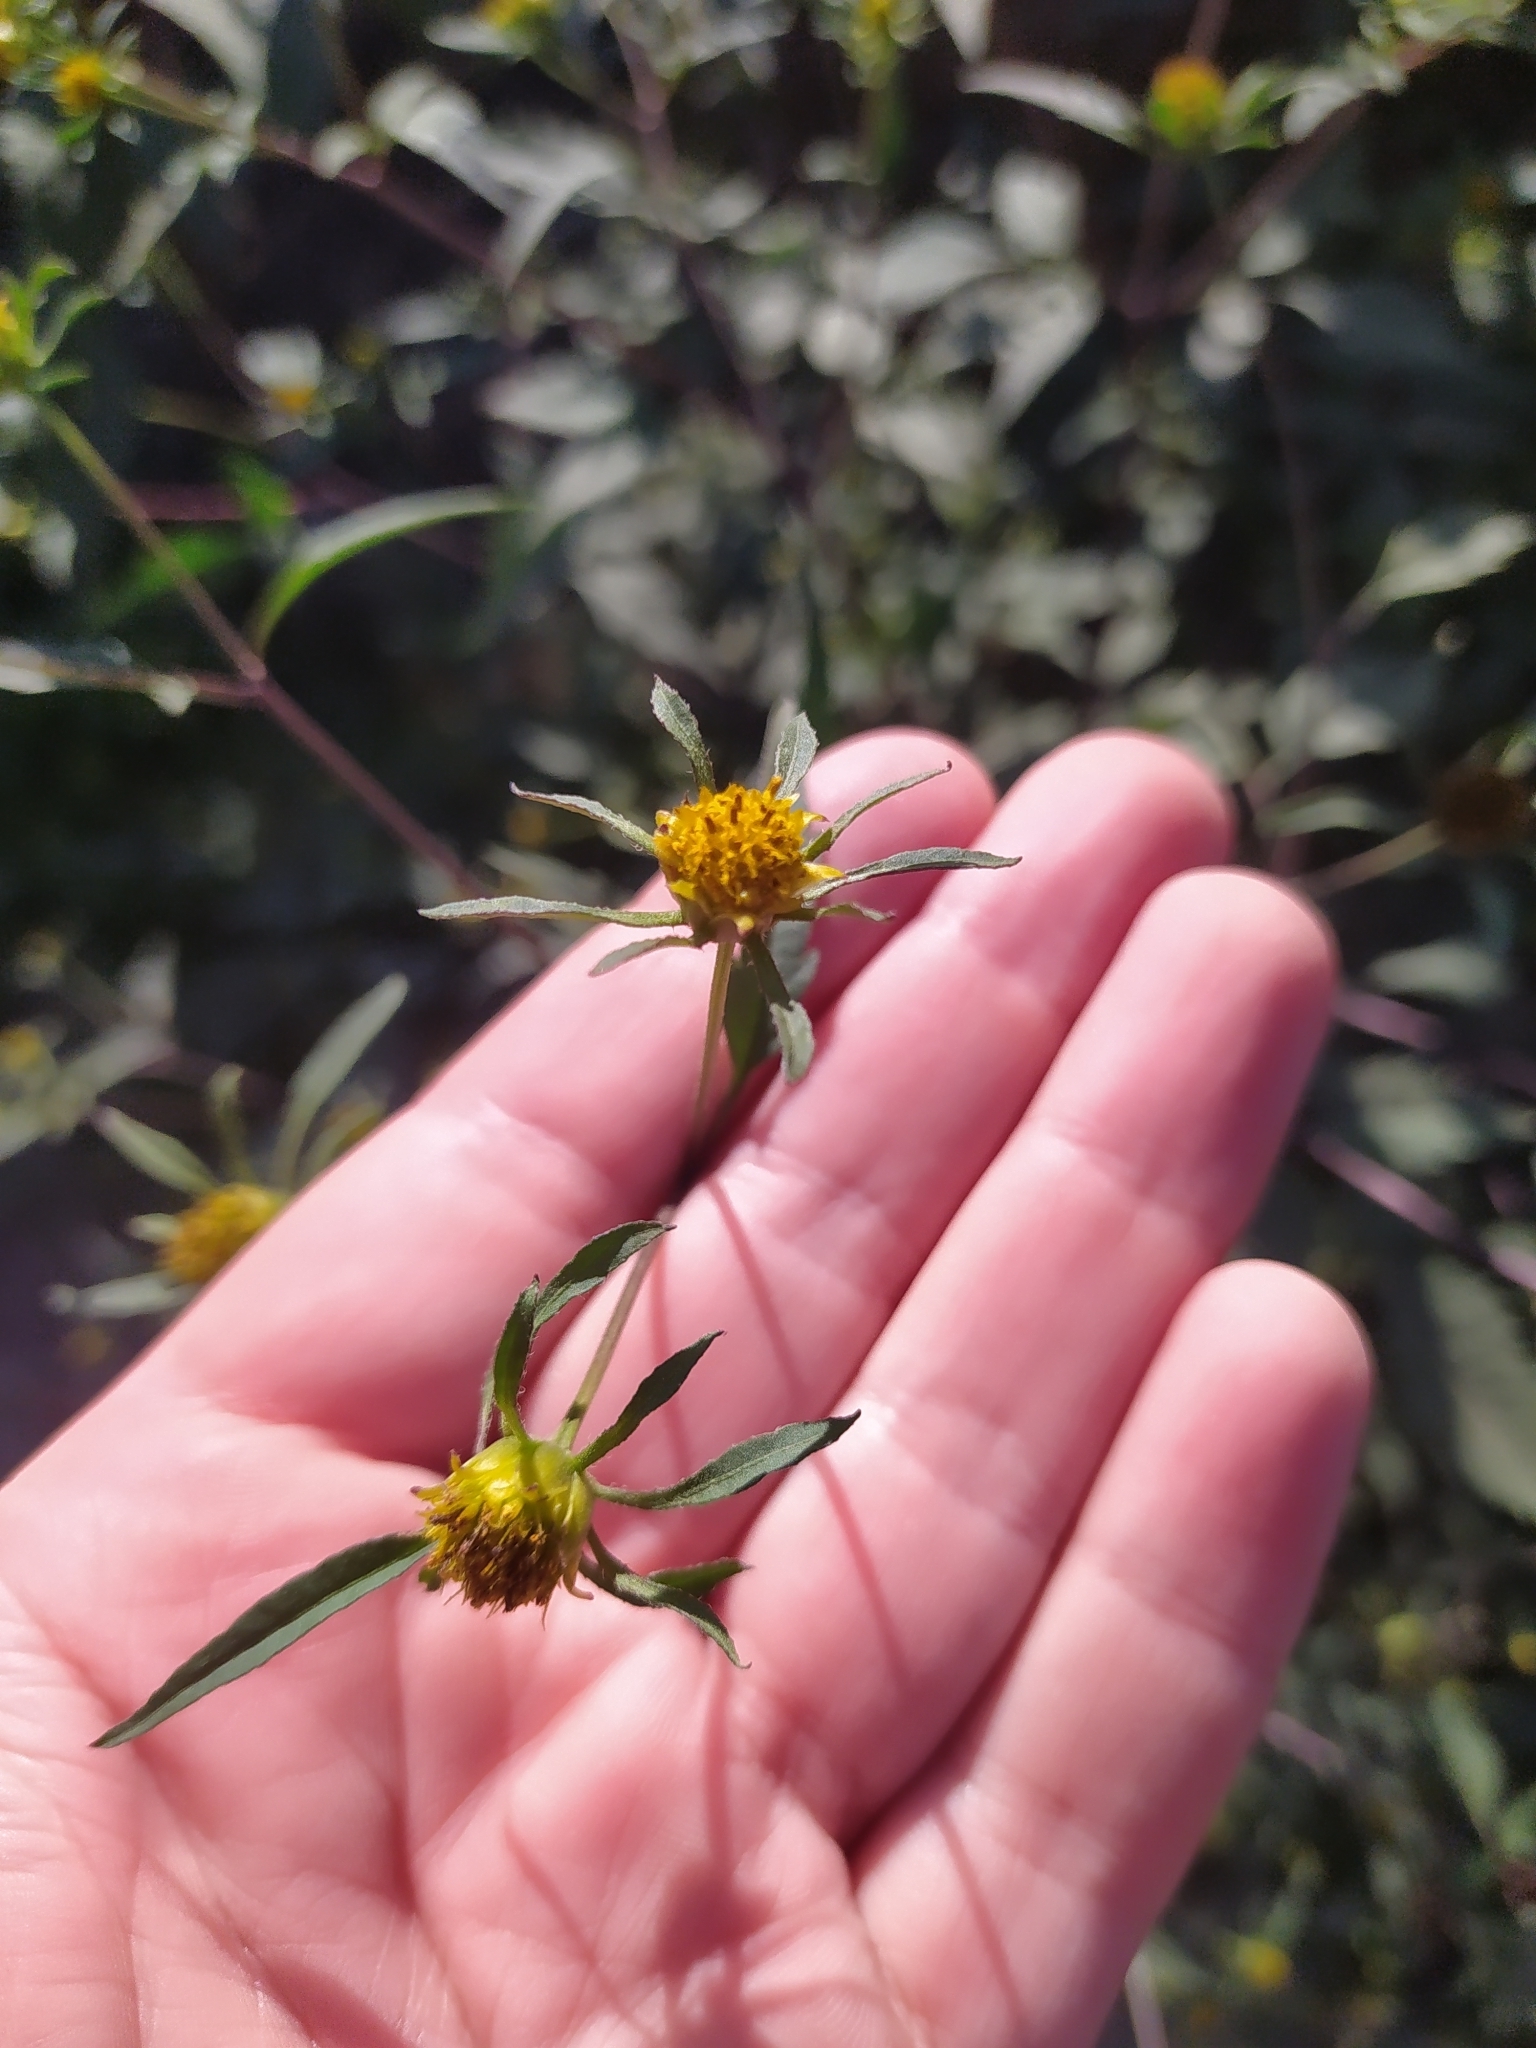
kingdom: Plantae
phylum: Tracheophyta
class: Magnoliopsida
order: Asterales
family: Asteraceae
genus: Bidens
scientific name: Bidens frondosa
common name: Beggarticks
